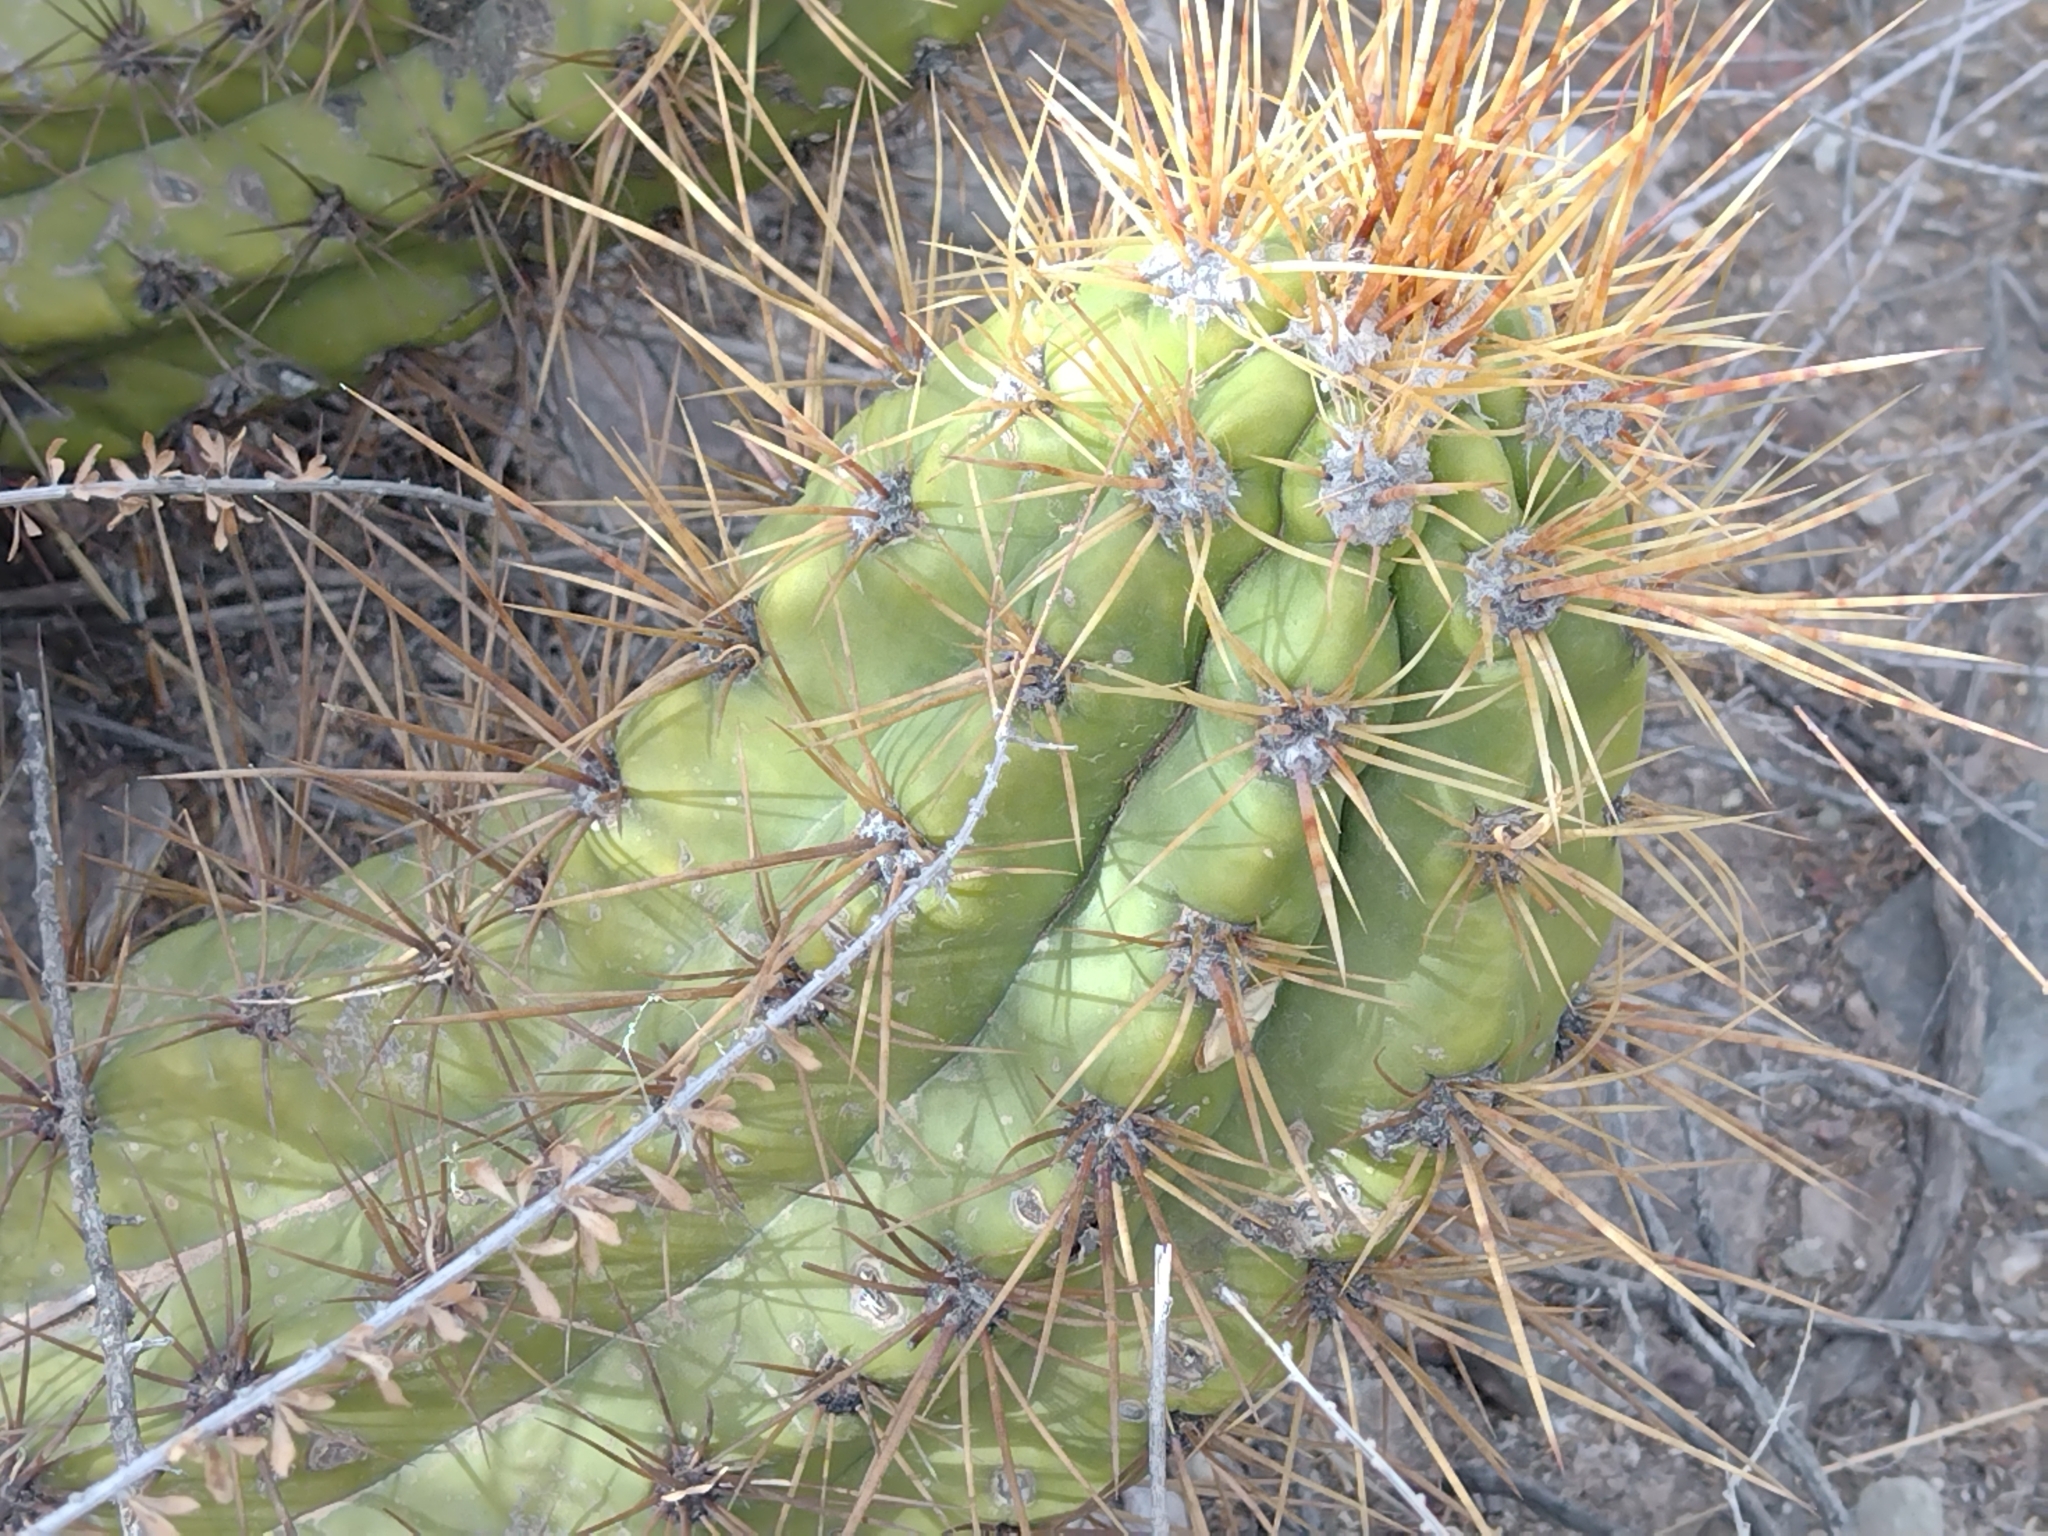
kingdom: Plantae
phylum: Tracheophyta
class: Magnoliopsida
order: Caryophyllales
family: Cactaceae
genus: Soehrensia
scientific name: Soehrensia candicans
